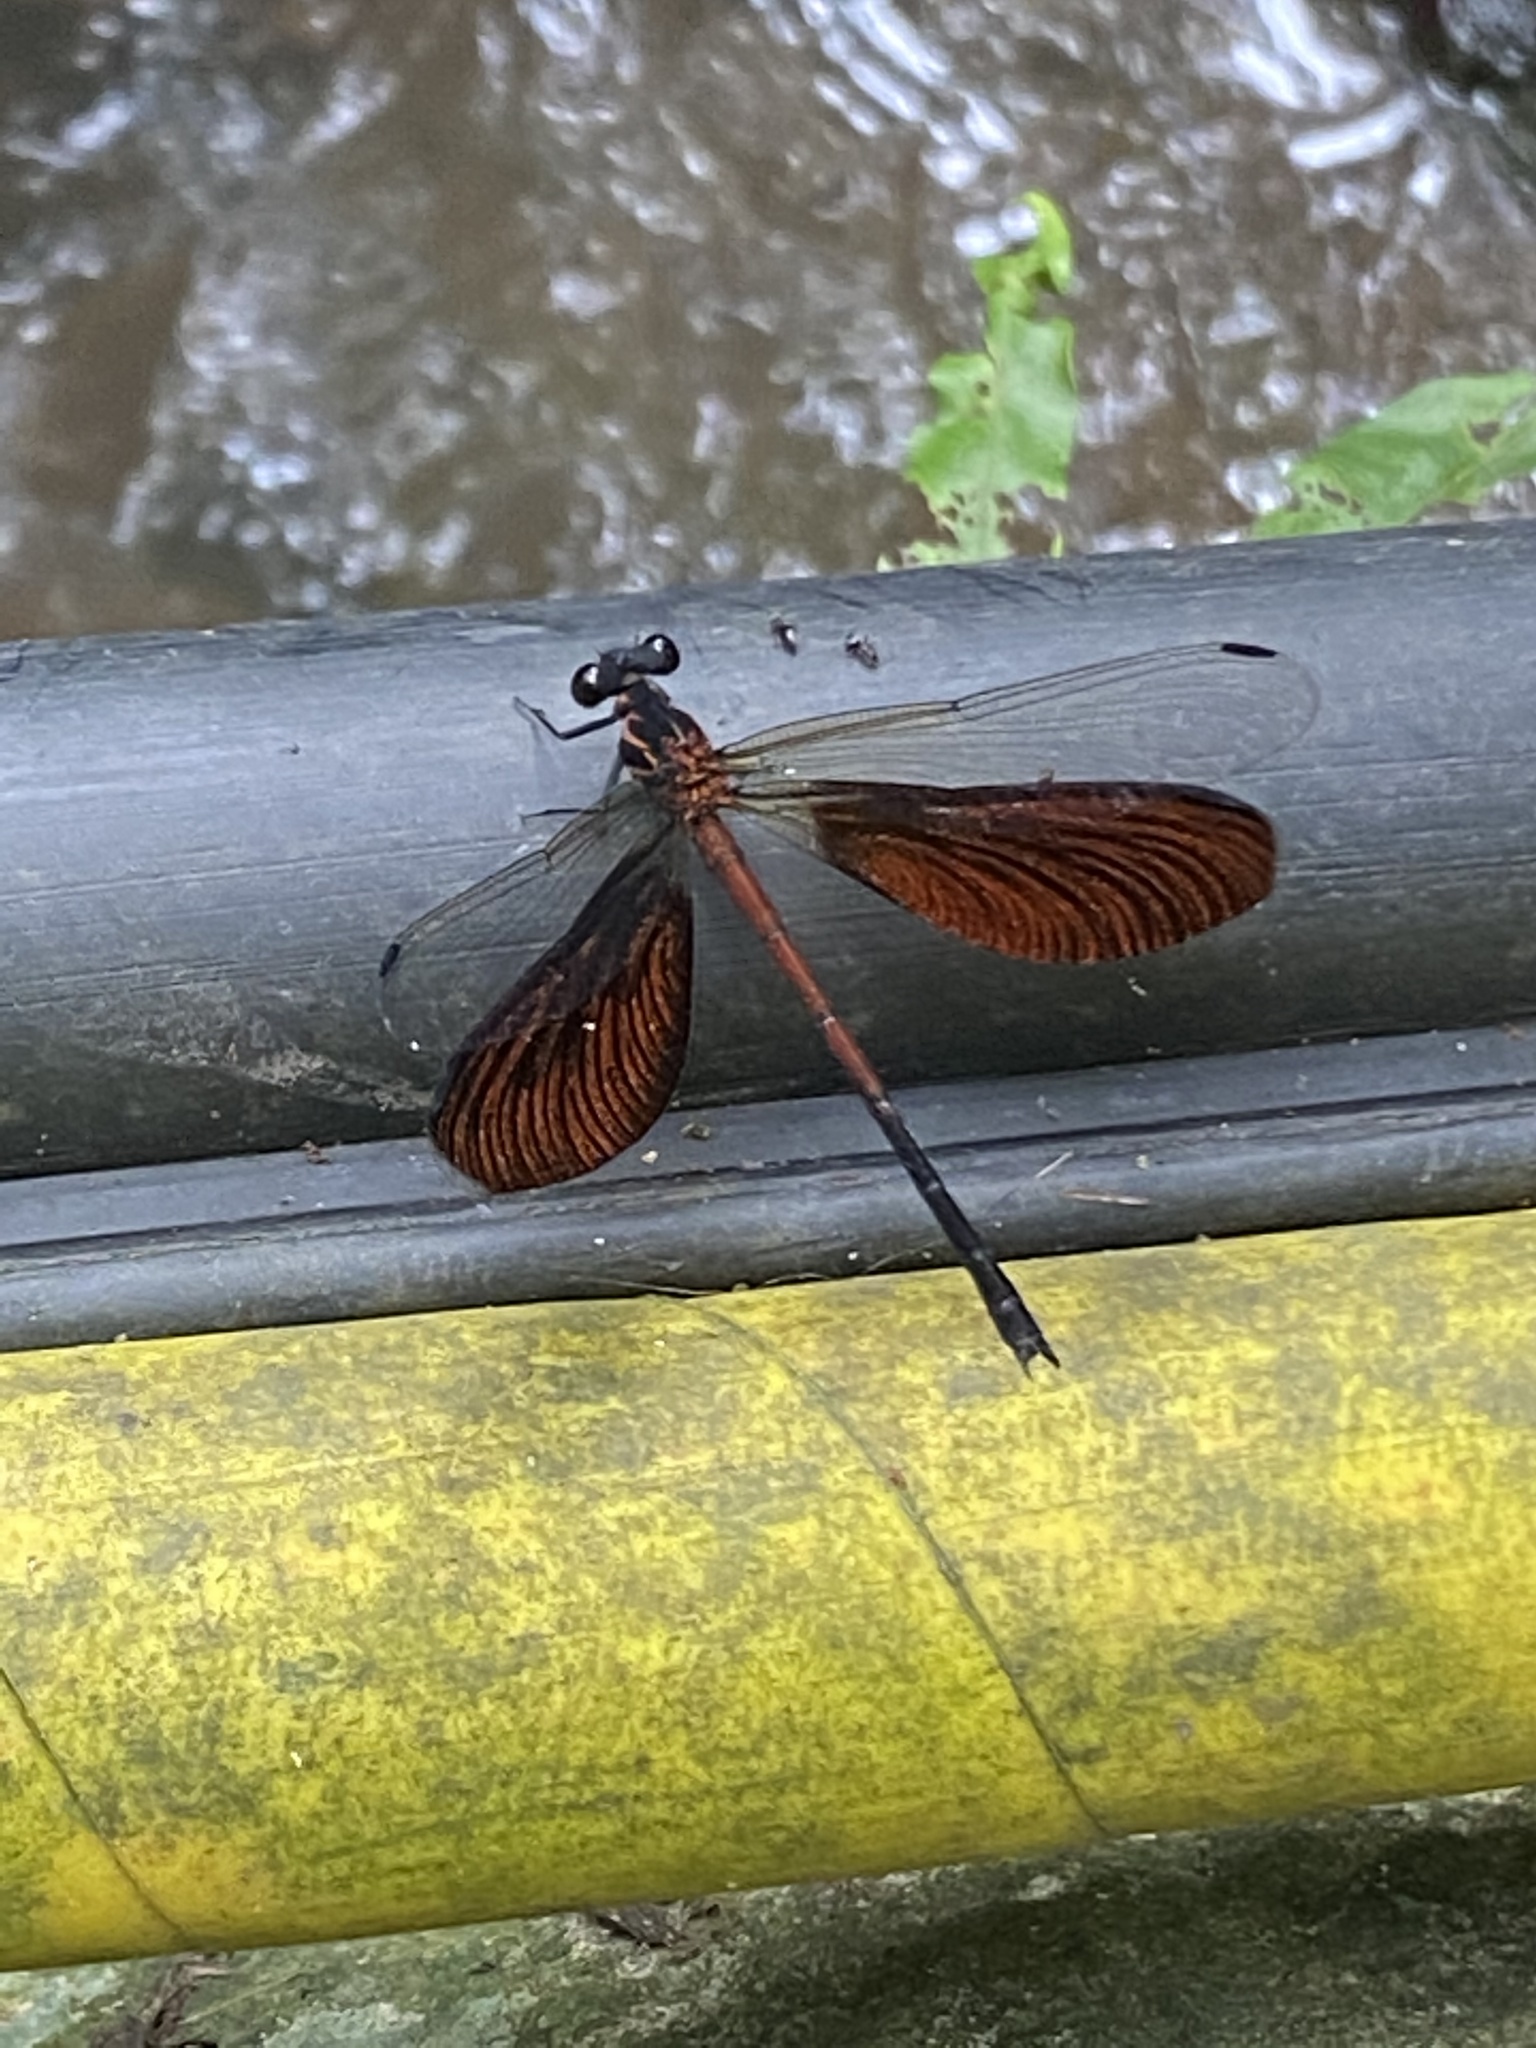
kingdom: Animalia
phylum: Arthropoda
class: Insecta
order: Odonata
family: Euphaeidae
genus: Euphaea
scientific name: Euphaea formosa
